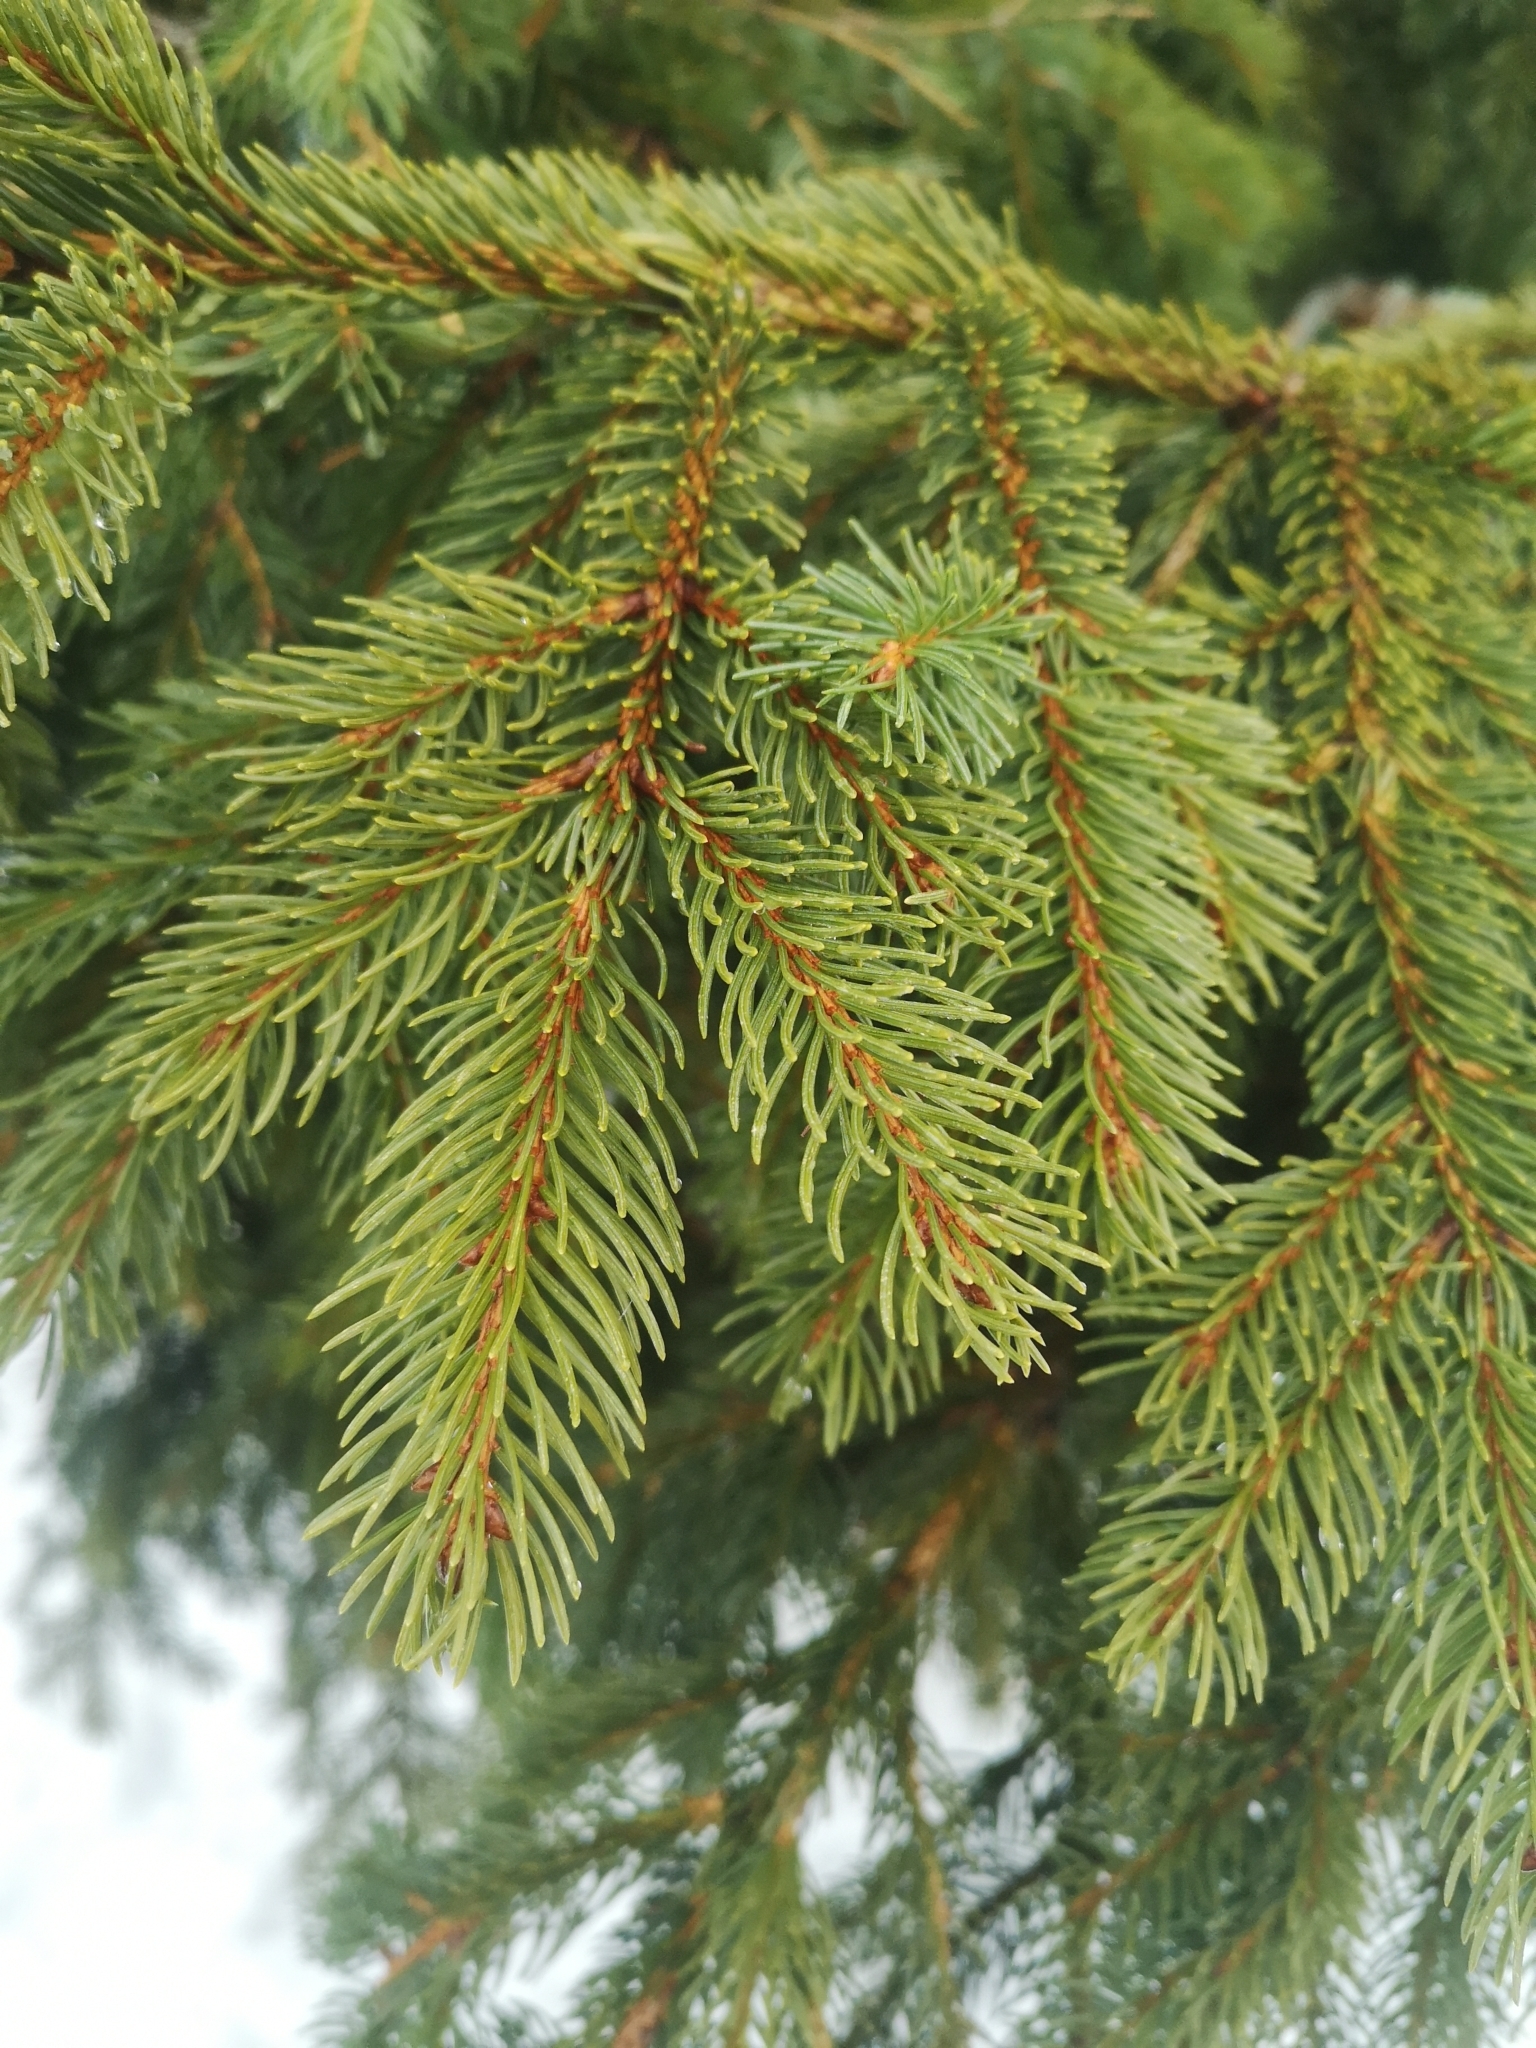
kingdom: Plantae
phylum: Tracheophyta
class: Pinopsida
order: Pinales
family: Pinaceae
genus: Picea
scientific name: Picea abies
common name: Norway spruce
